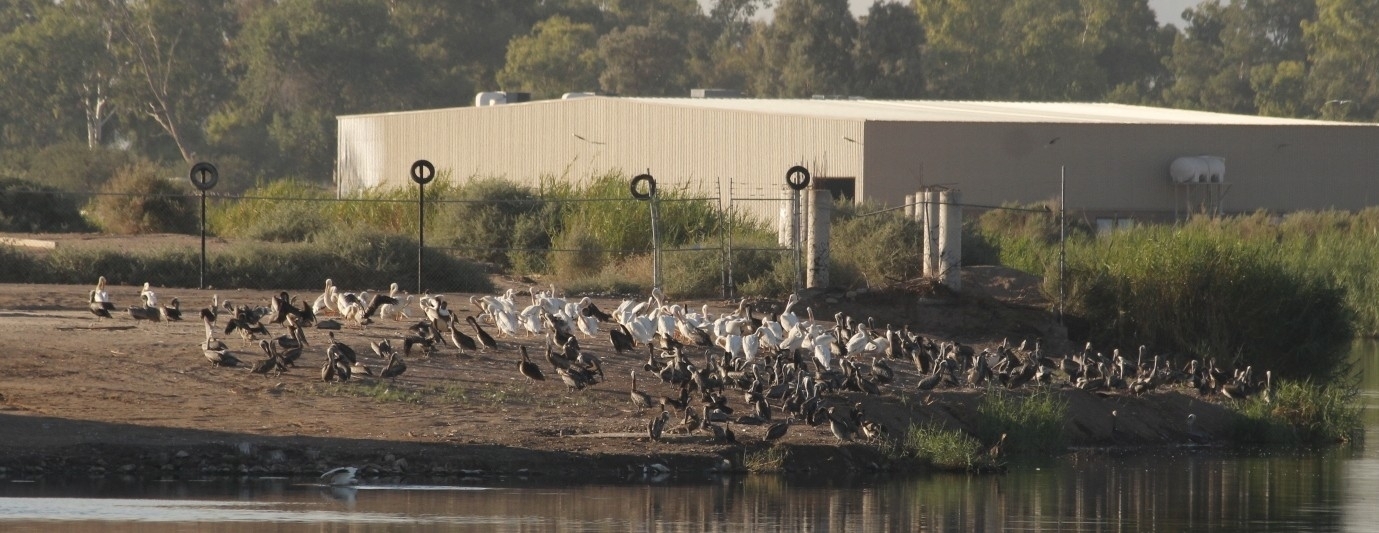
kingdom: Animalia
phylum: Chordata
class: Aves
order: Pelecaniformes
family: Pelecanidae
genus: Pelecanus
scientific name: Pelecanus erythrorhynchos
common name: American white pelican
